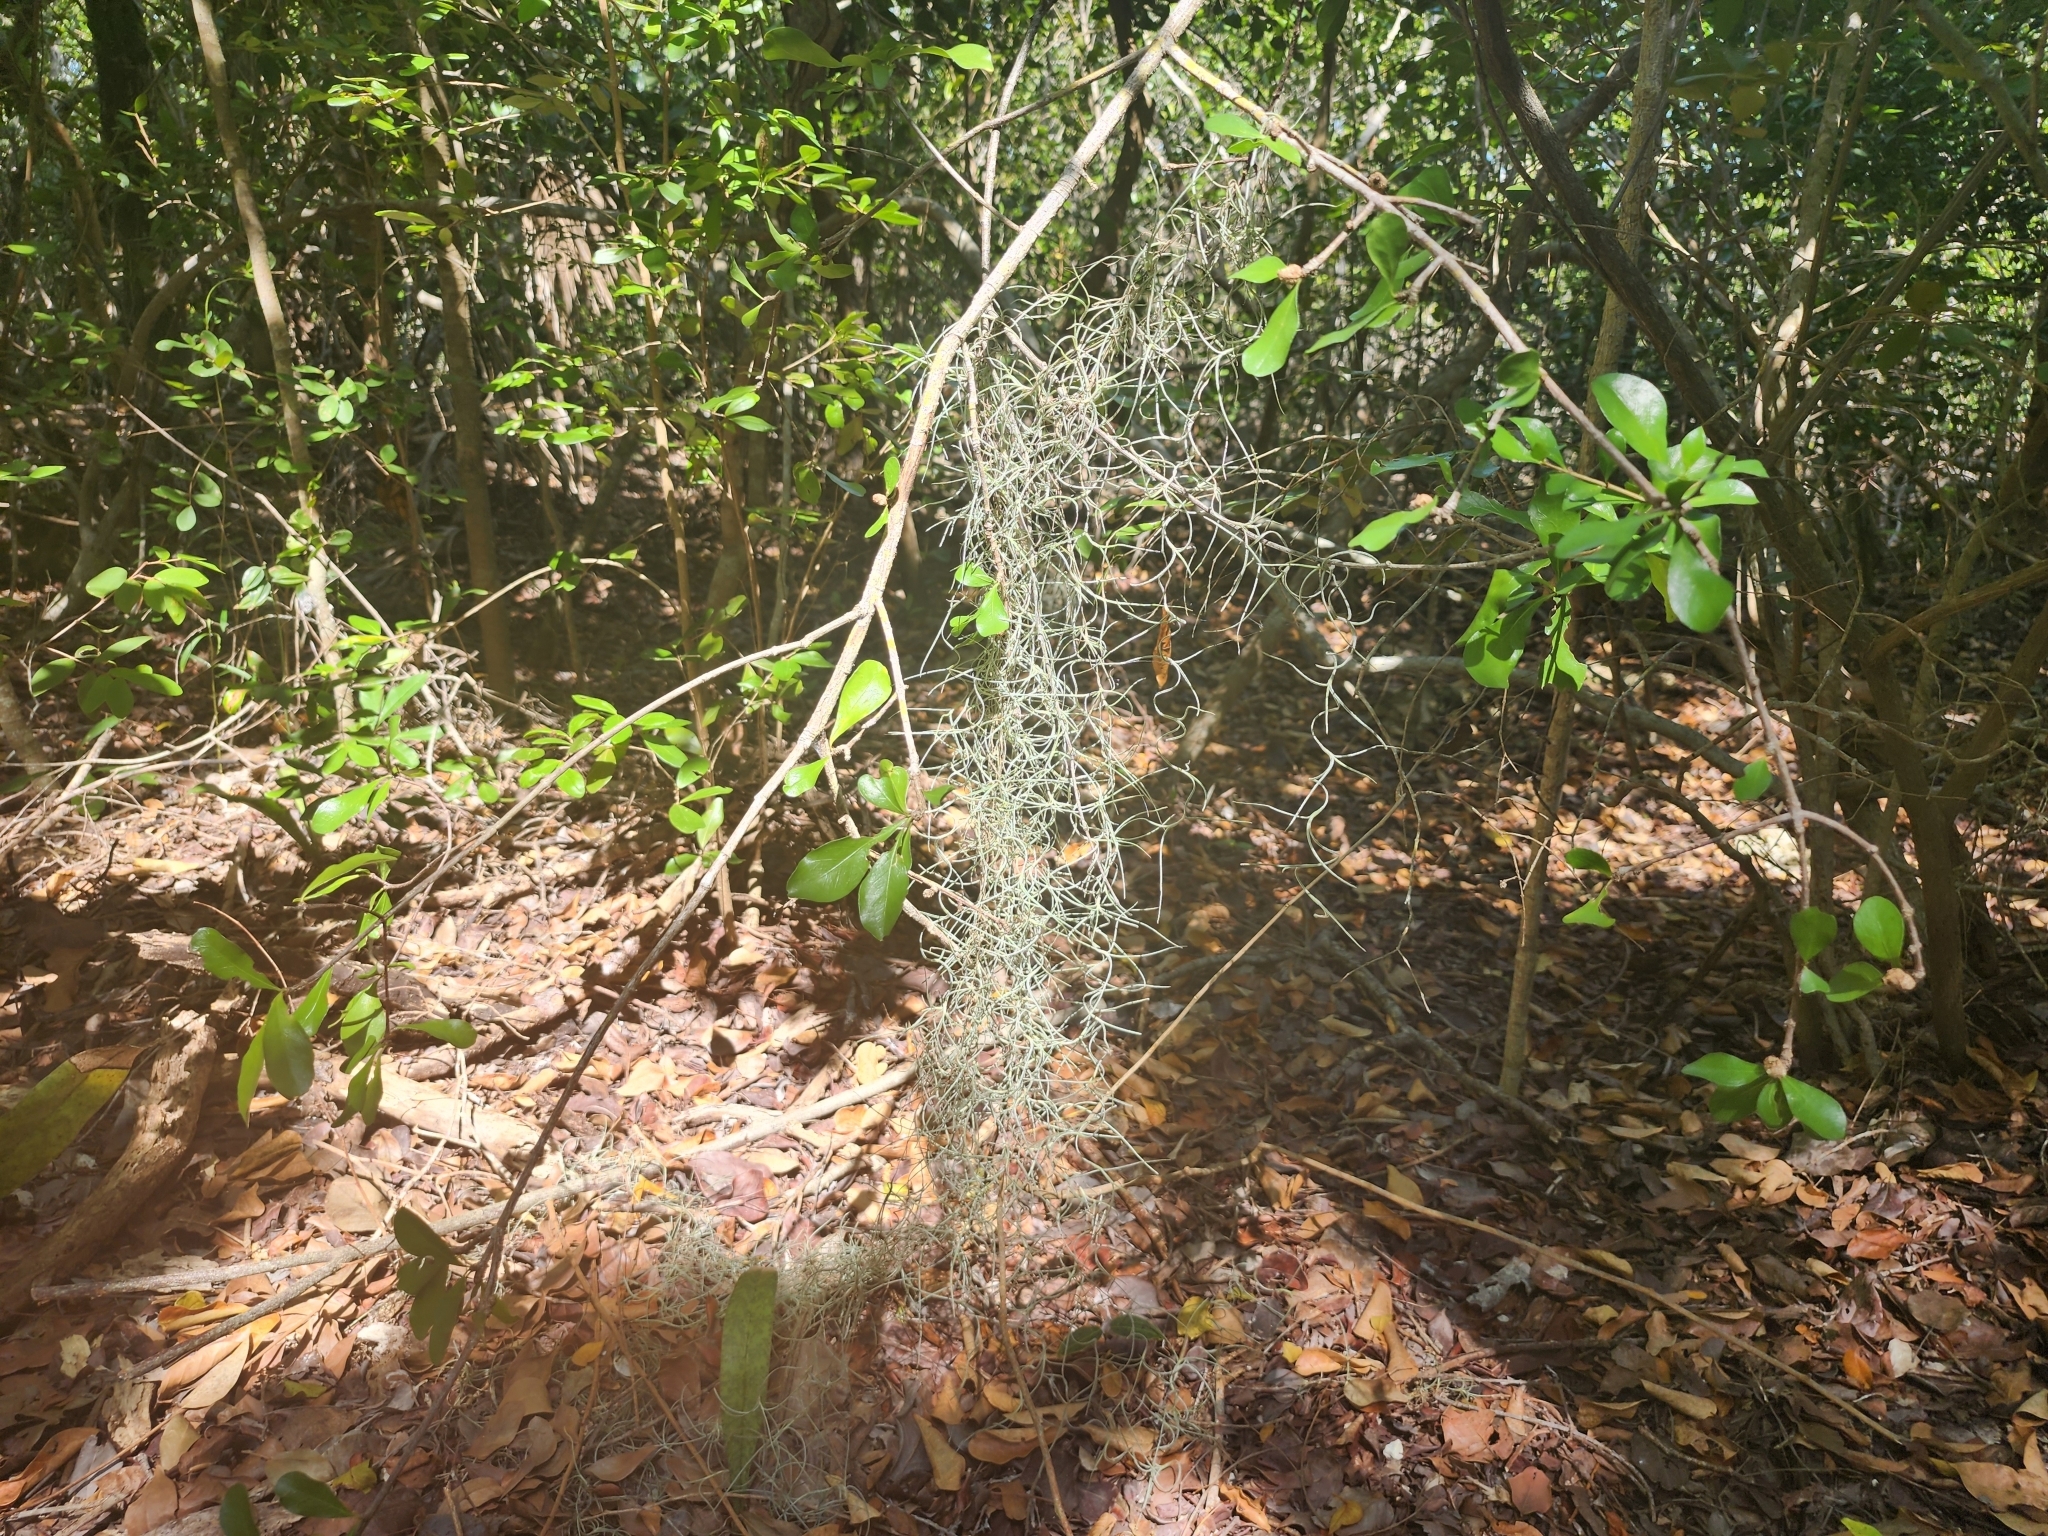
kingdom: Plantae
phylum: Tracheophyta
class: Liliopsida
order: Poales
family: Bromeliaceae
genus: Tillandsia
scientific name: Tillandsia usneoides
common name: Spanish moss
